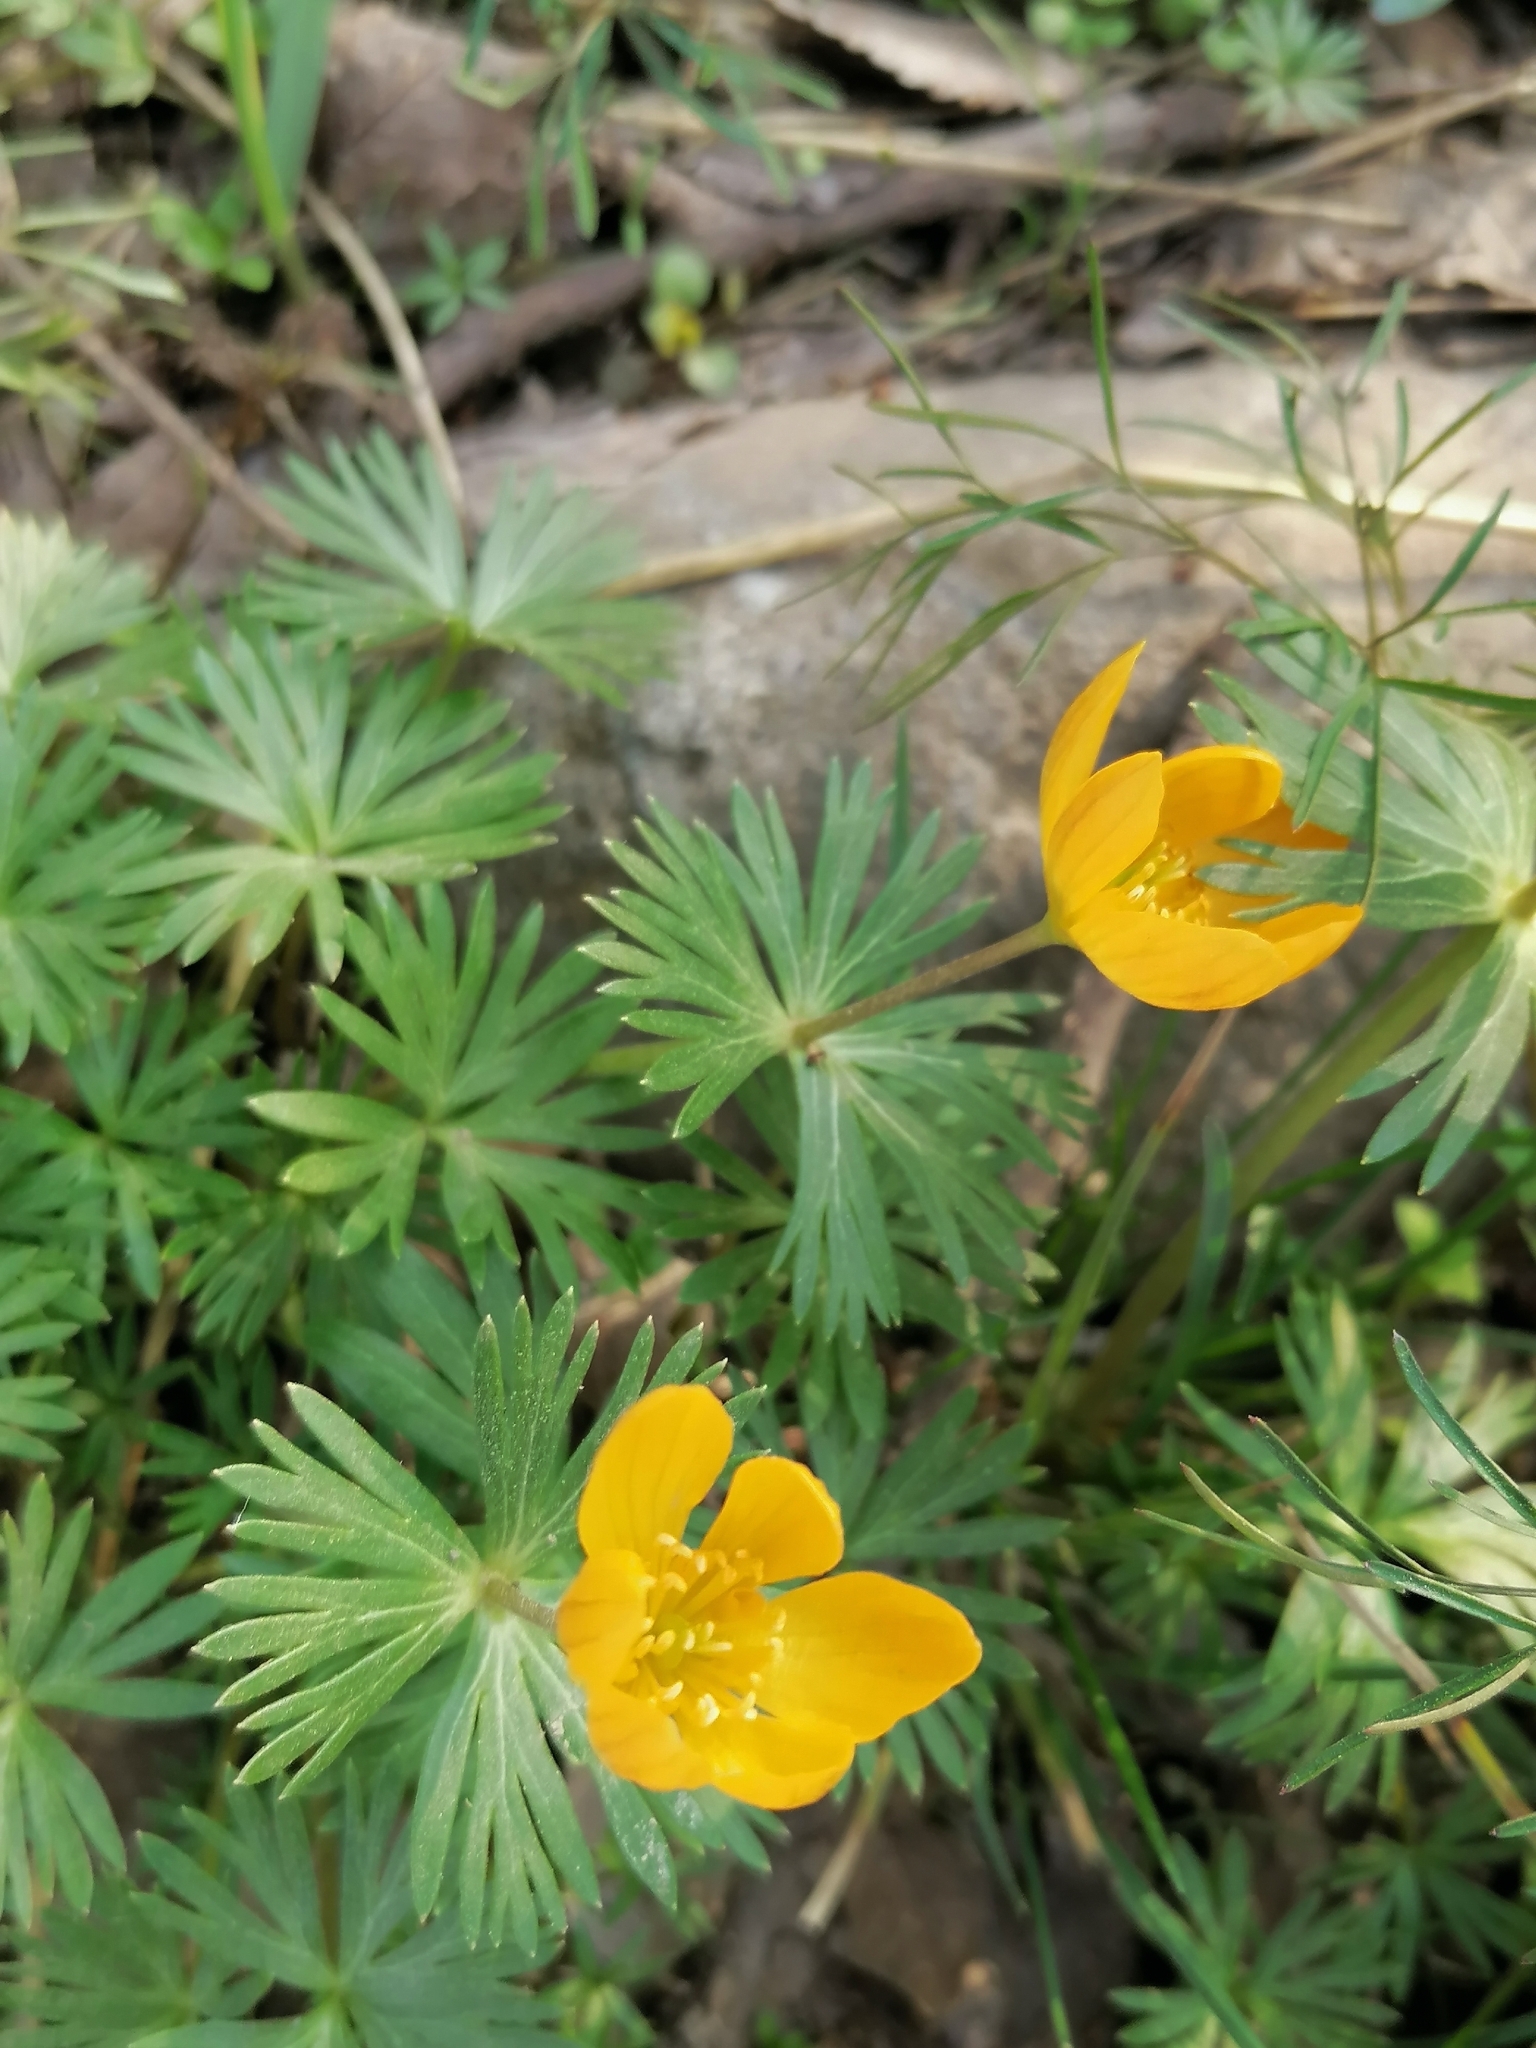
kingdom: Plantae
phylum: Tracheophyta
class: Magnoliopsida
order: Ranunculales
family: Ranunculaceae
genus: Eranthis
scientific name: Eranthis longistipitata
